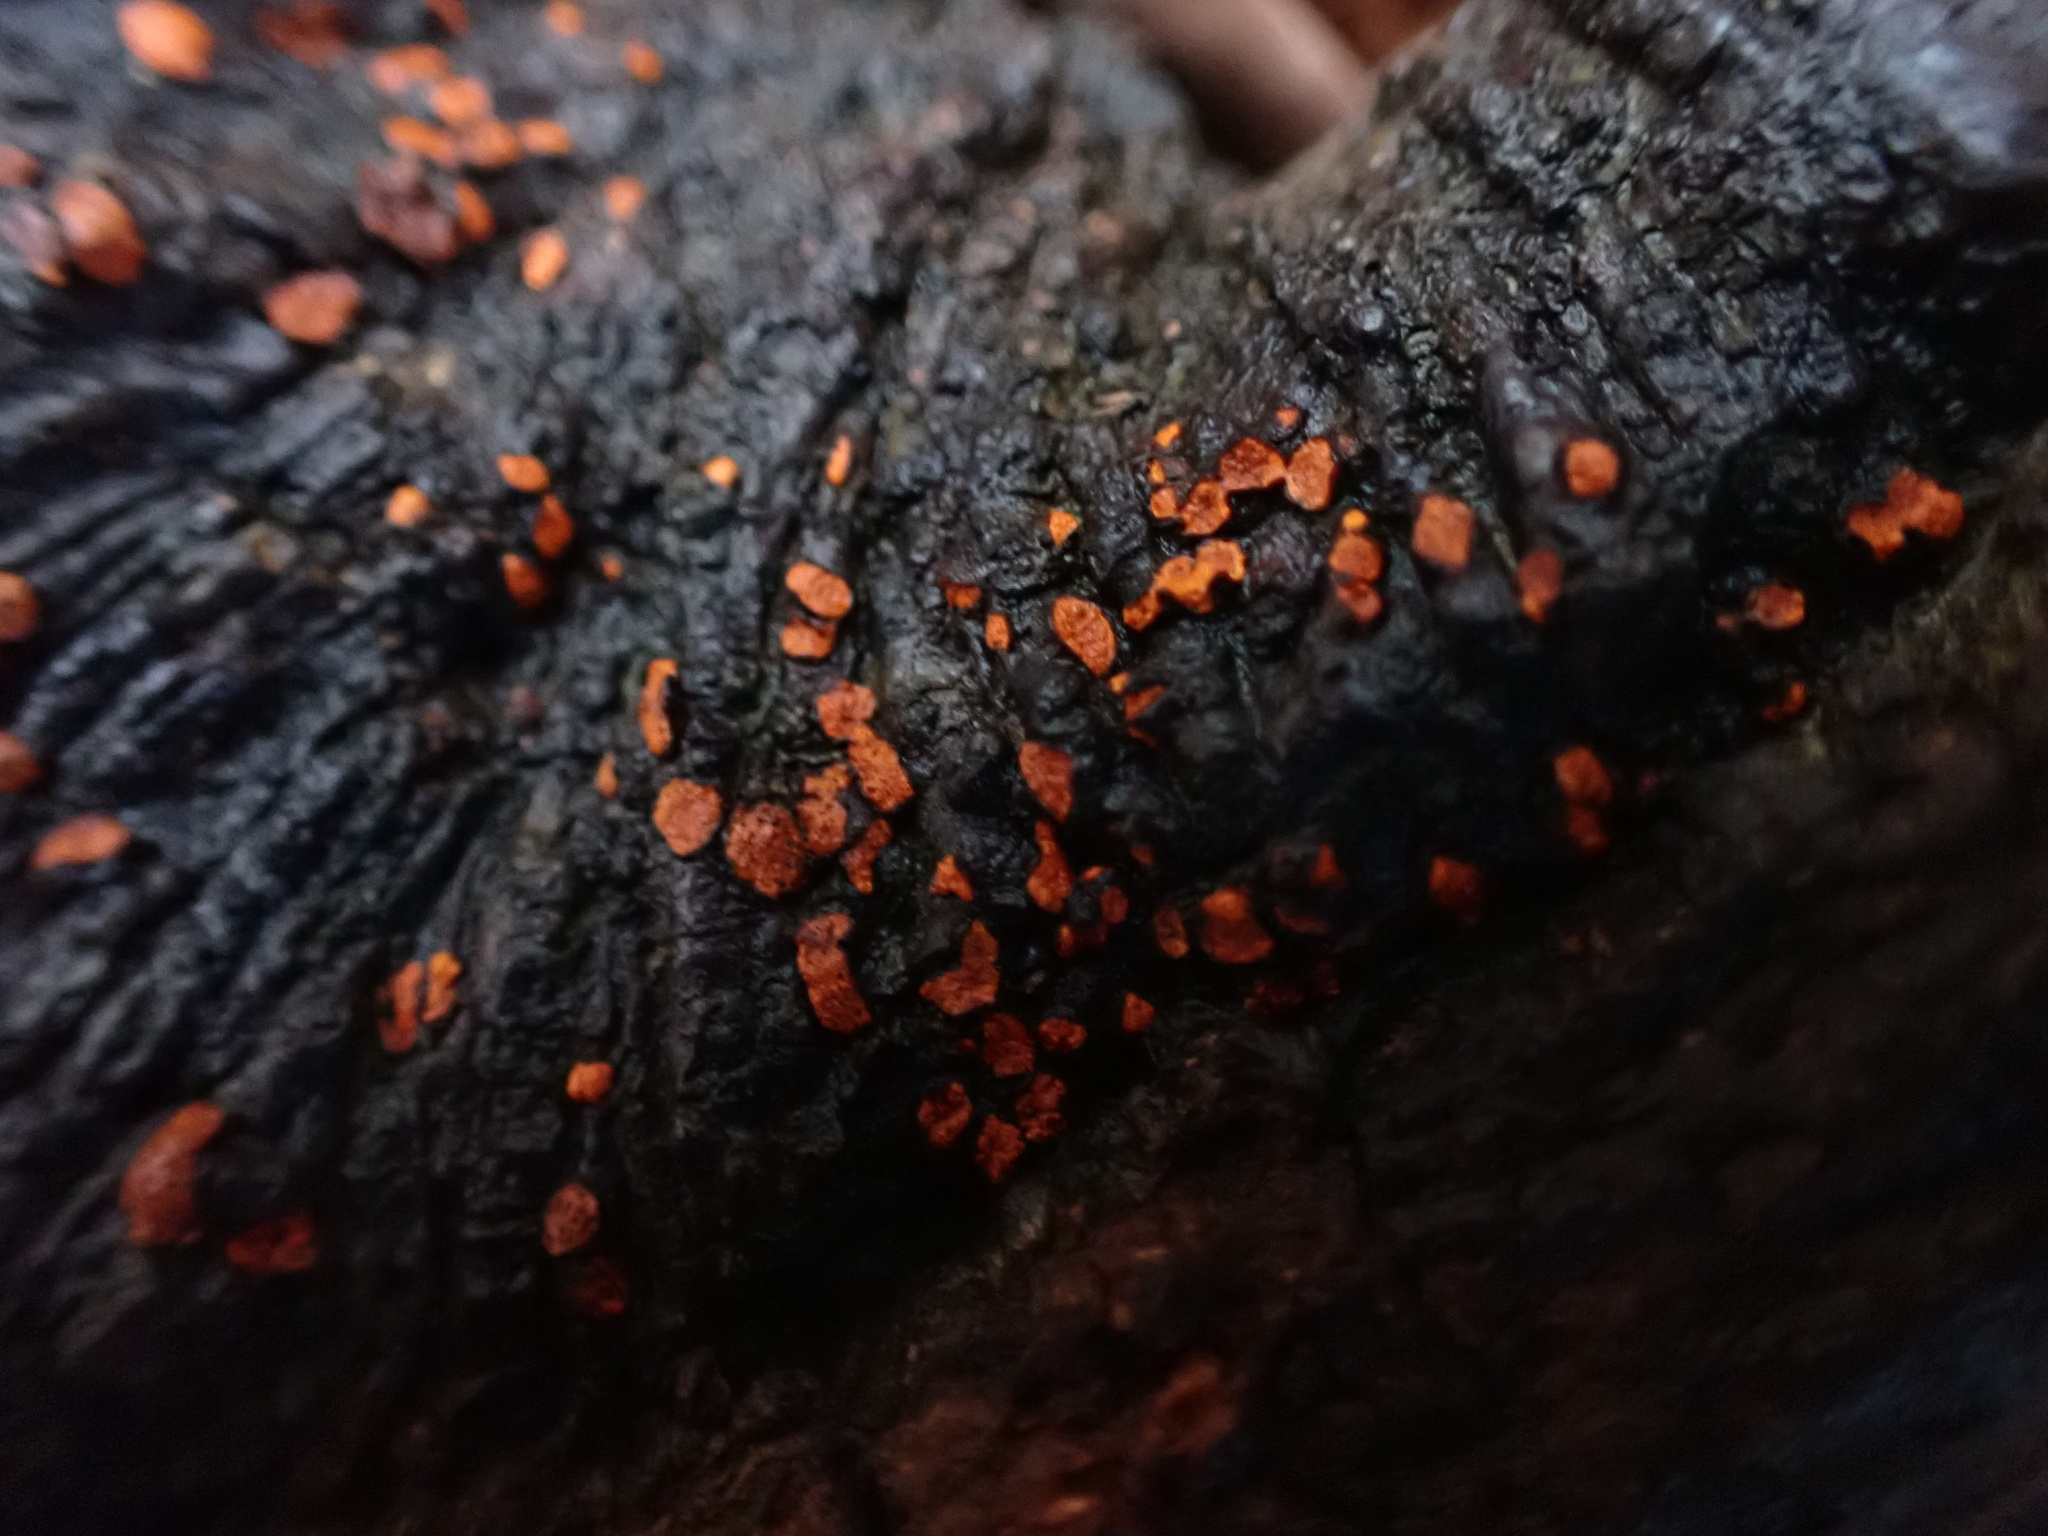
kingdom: Fungi
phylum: Ascomycota
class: Sordariomycetes
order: Diaporthales
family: Cryphonectriaceae
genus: Amphilogia
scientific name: Amphilogia gyrosa
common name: Orange hobnail canker
